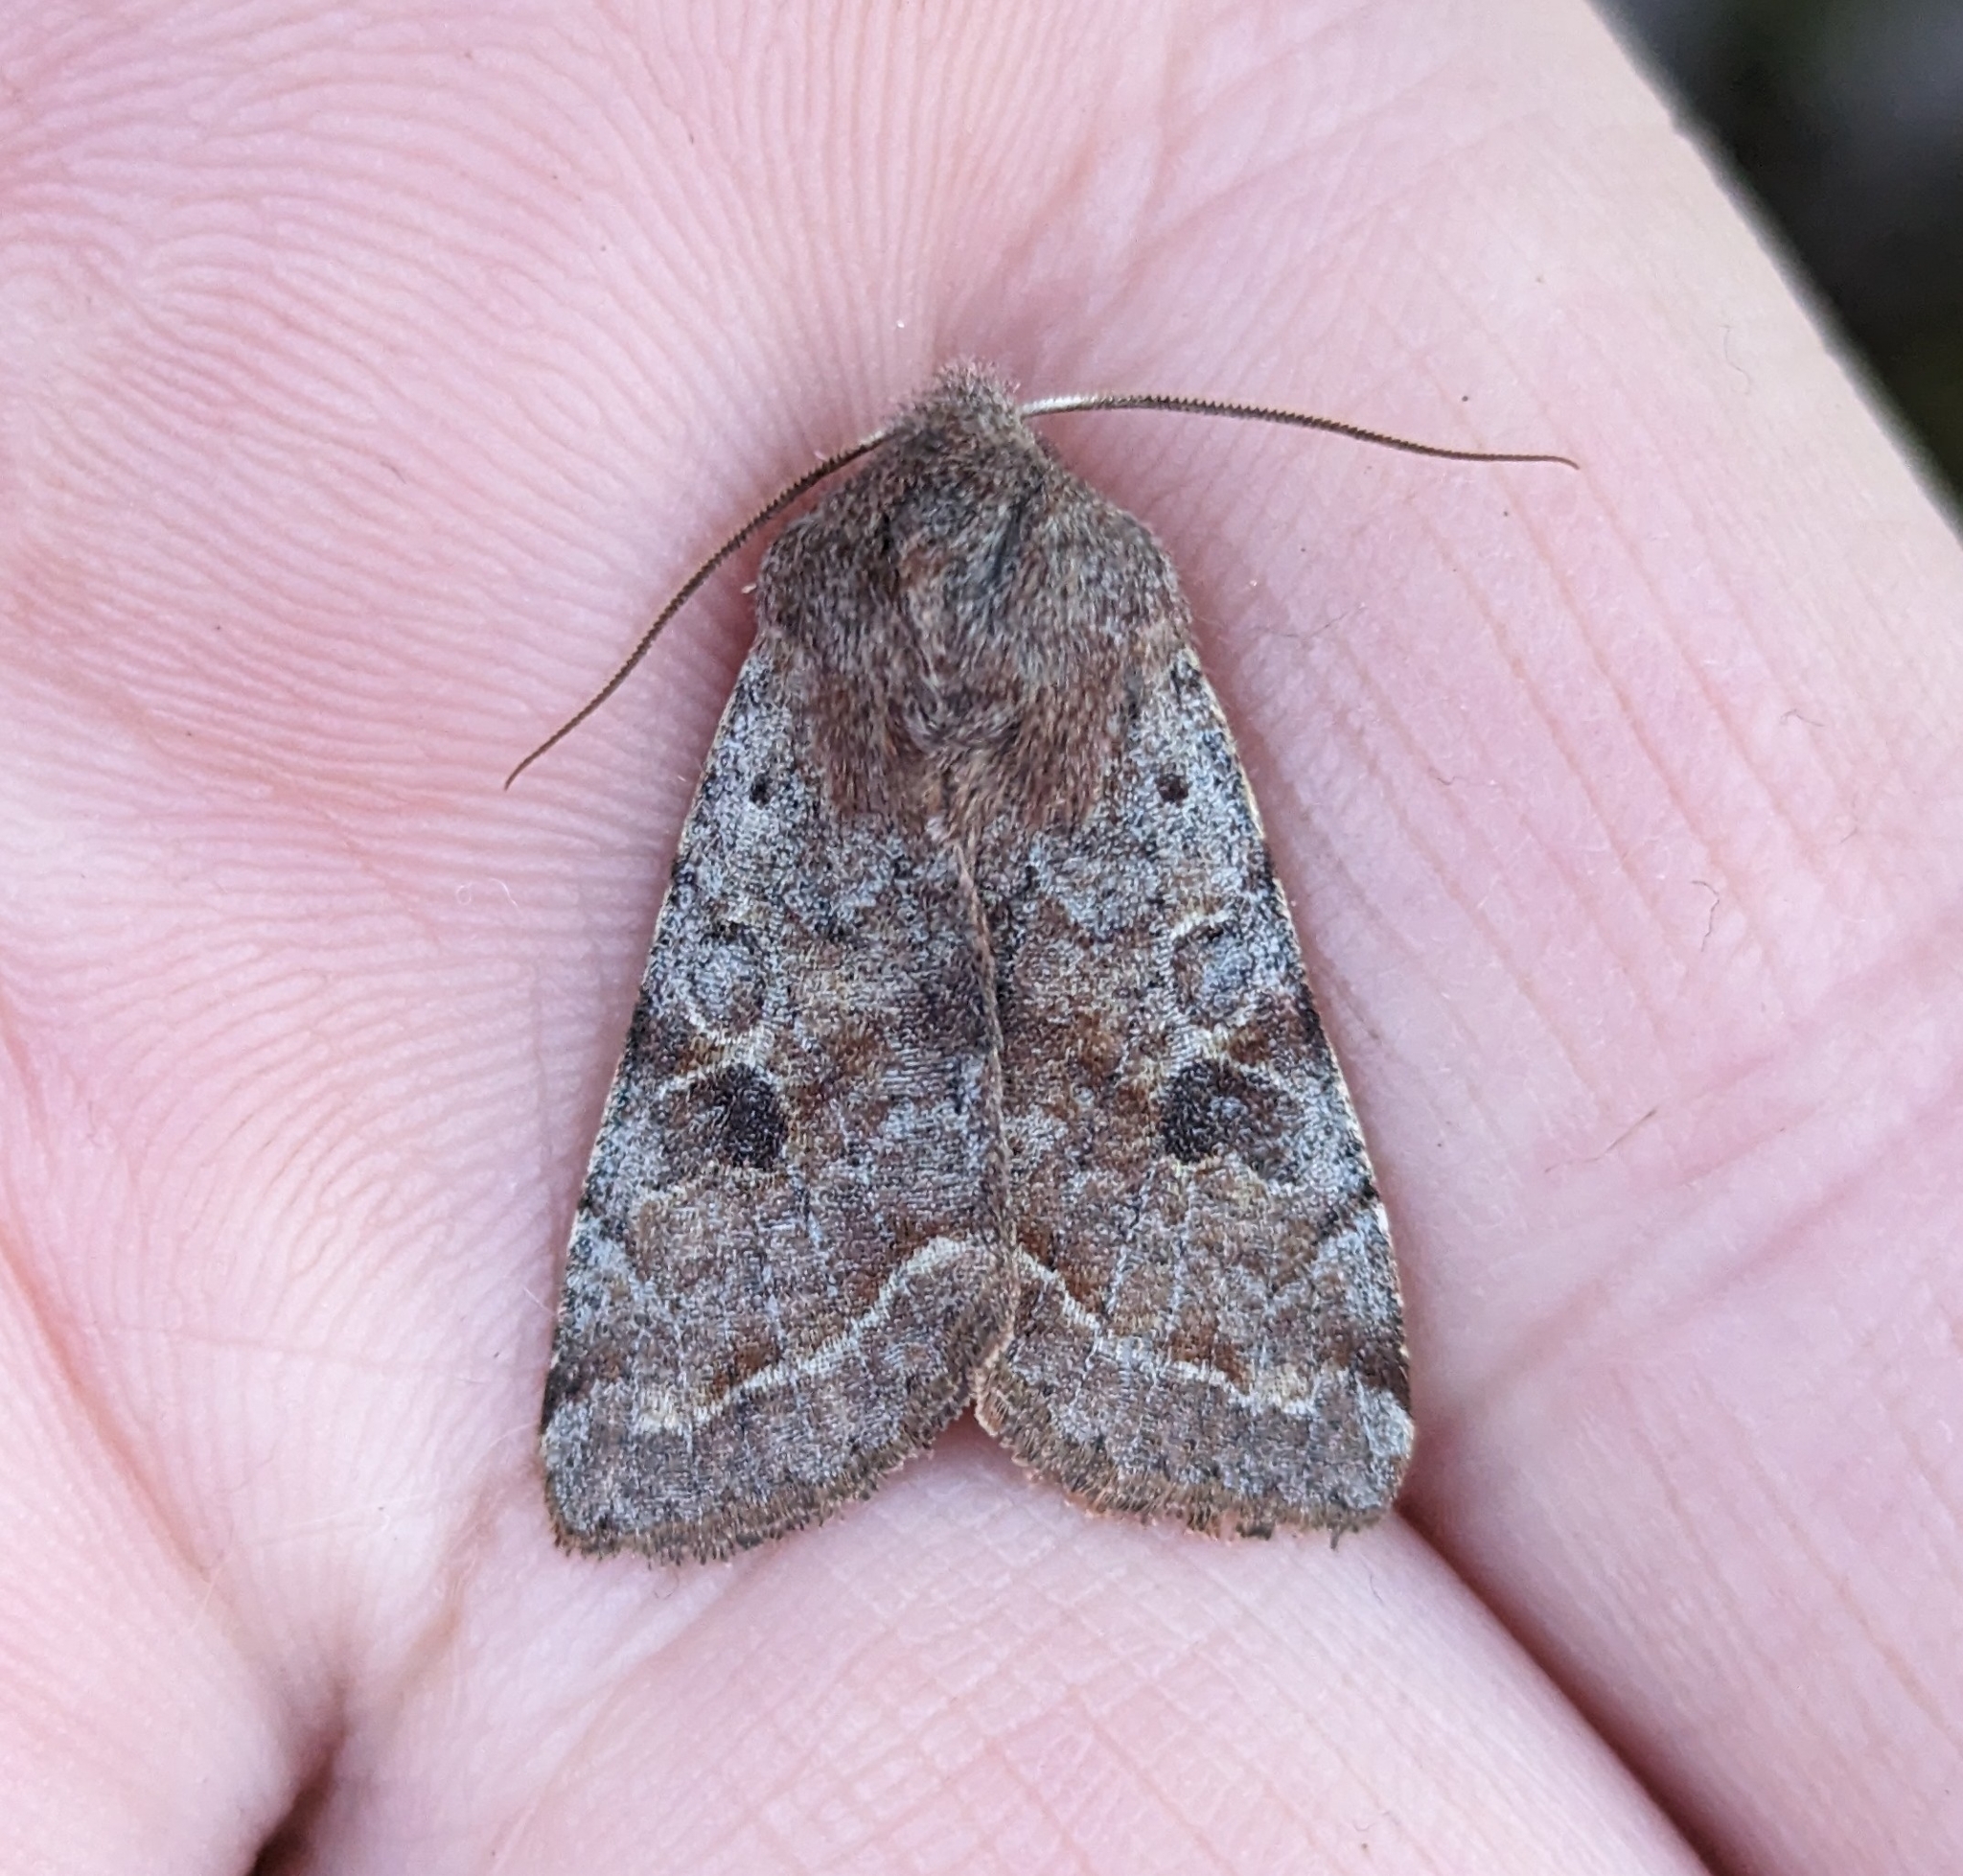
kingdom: Animalia
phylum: Arthropoda
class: Insecta
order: Lepidoptera
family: Noctuidae
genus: Orthosia
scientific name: Orthosia hibisci
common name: Green fruitworm
